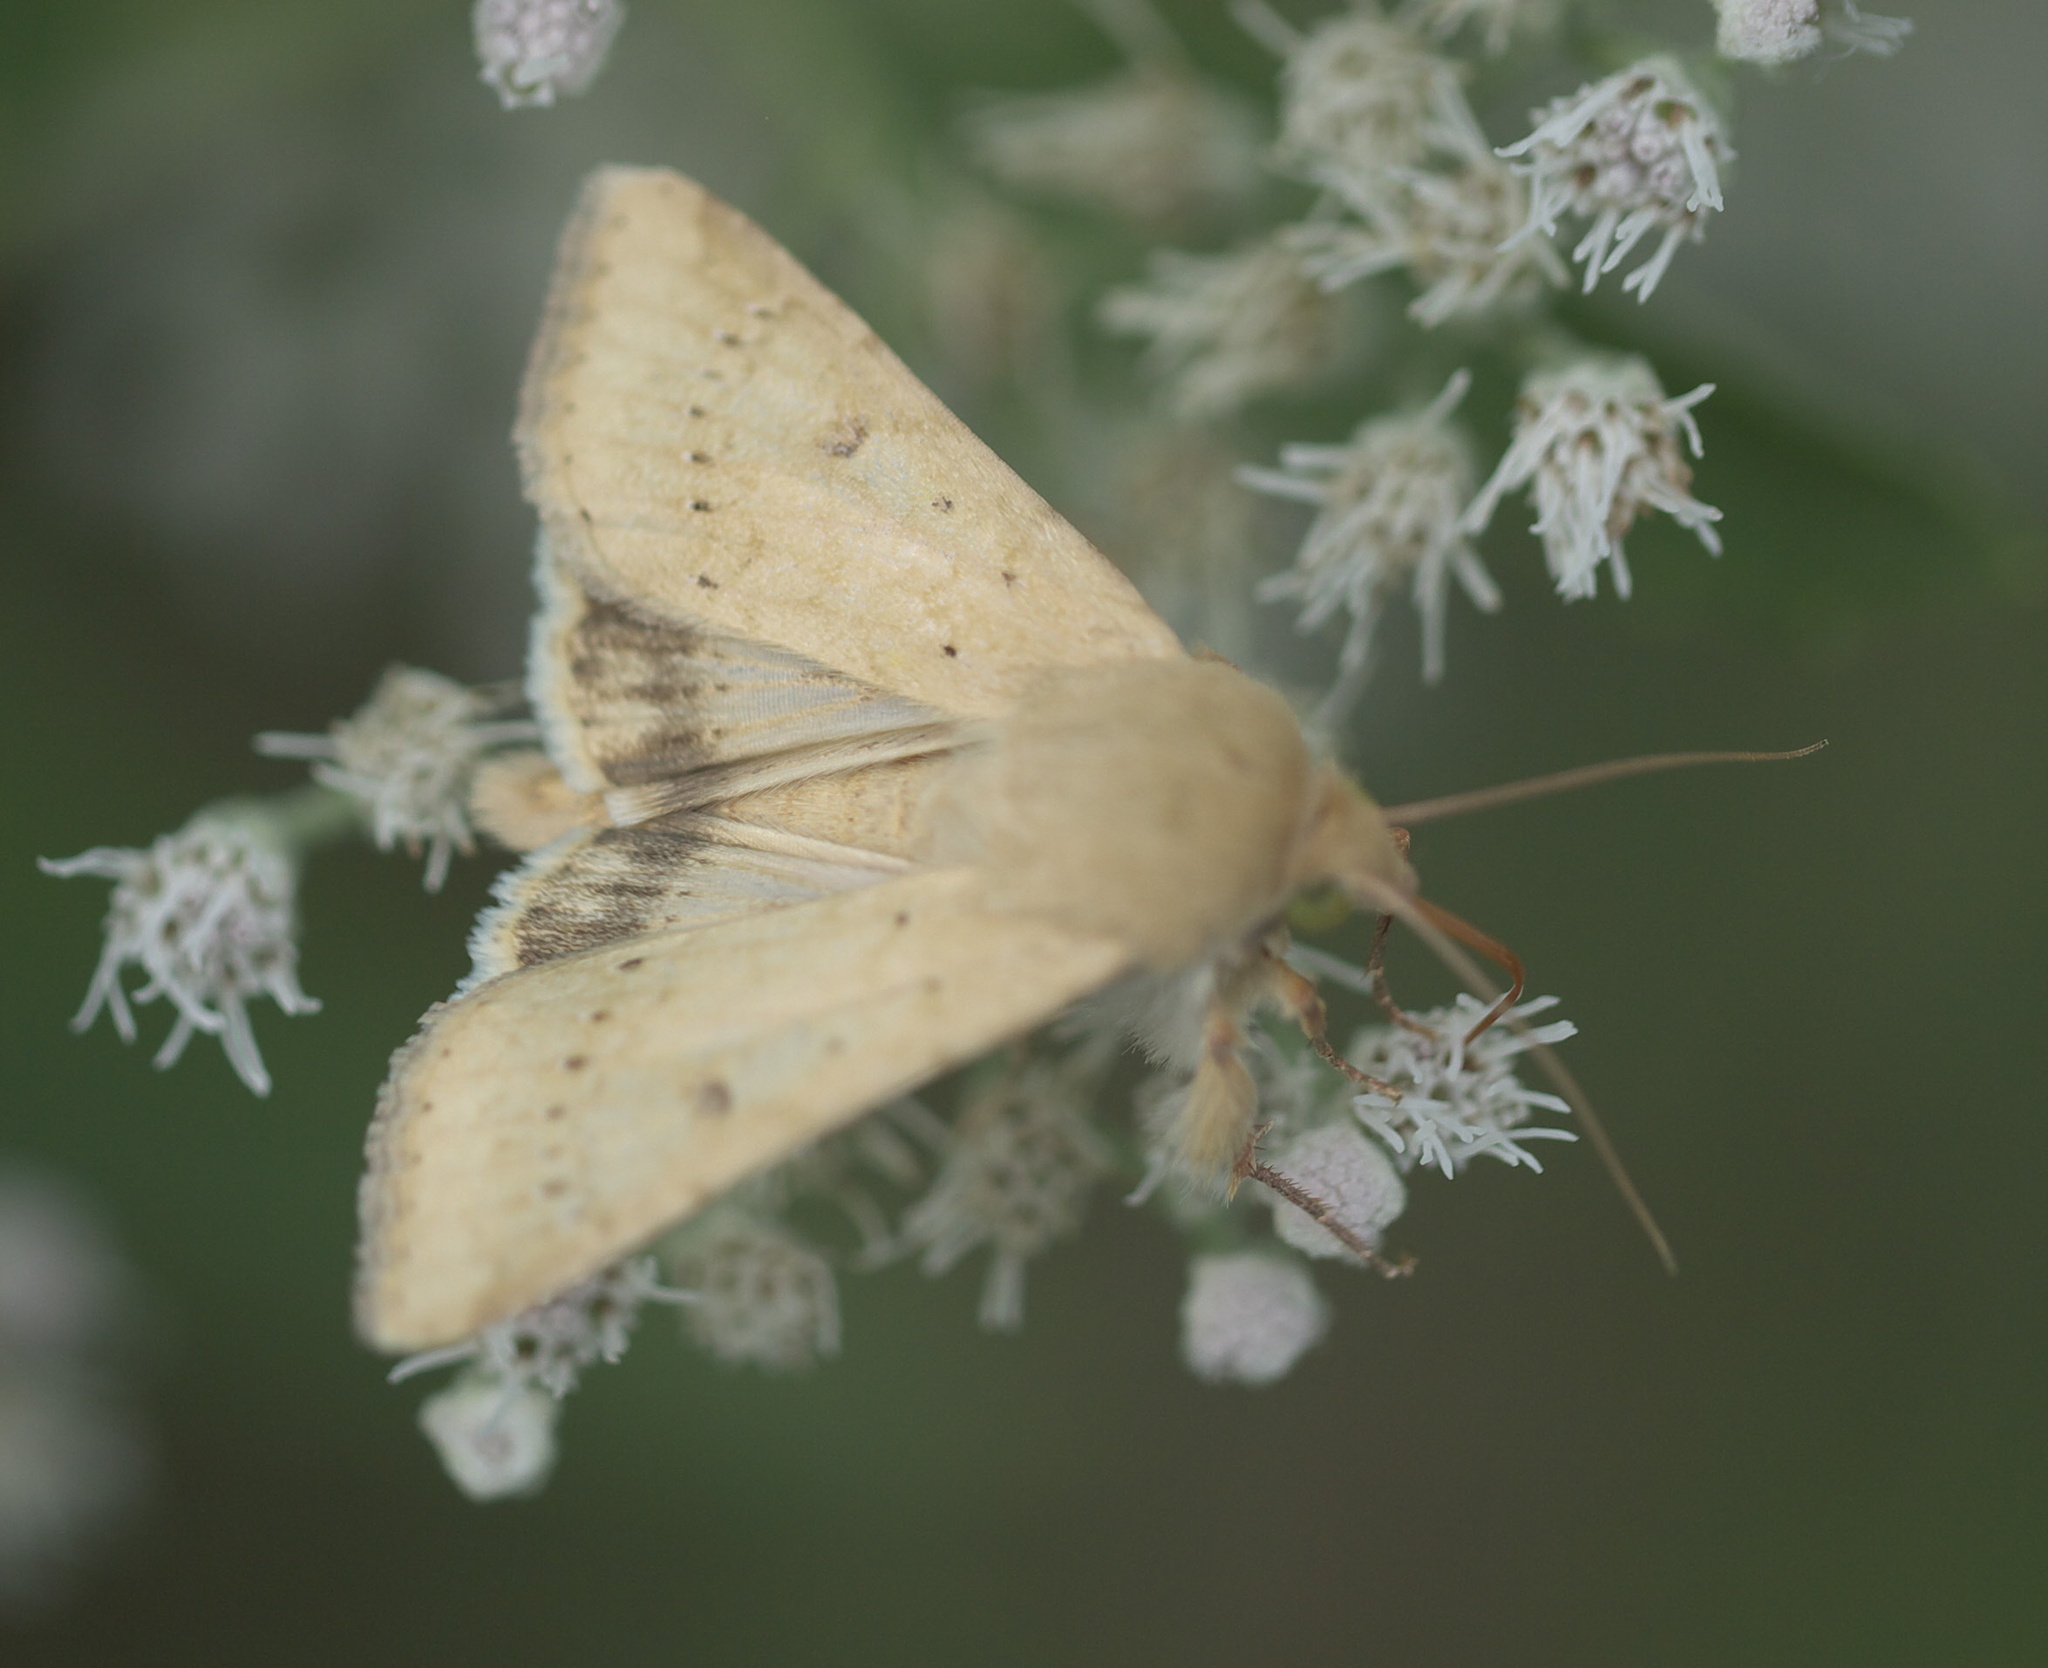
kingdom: Animalia
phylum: Arthropoda
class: Insecta
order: Lepidoptera
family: Noctuidae
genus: Helicoverpa
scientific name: Helicoverpa zea
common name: Bollworm
